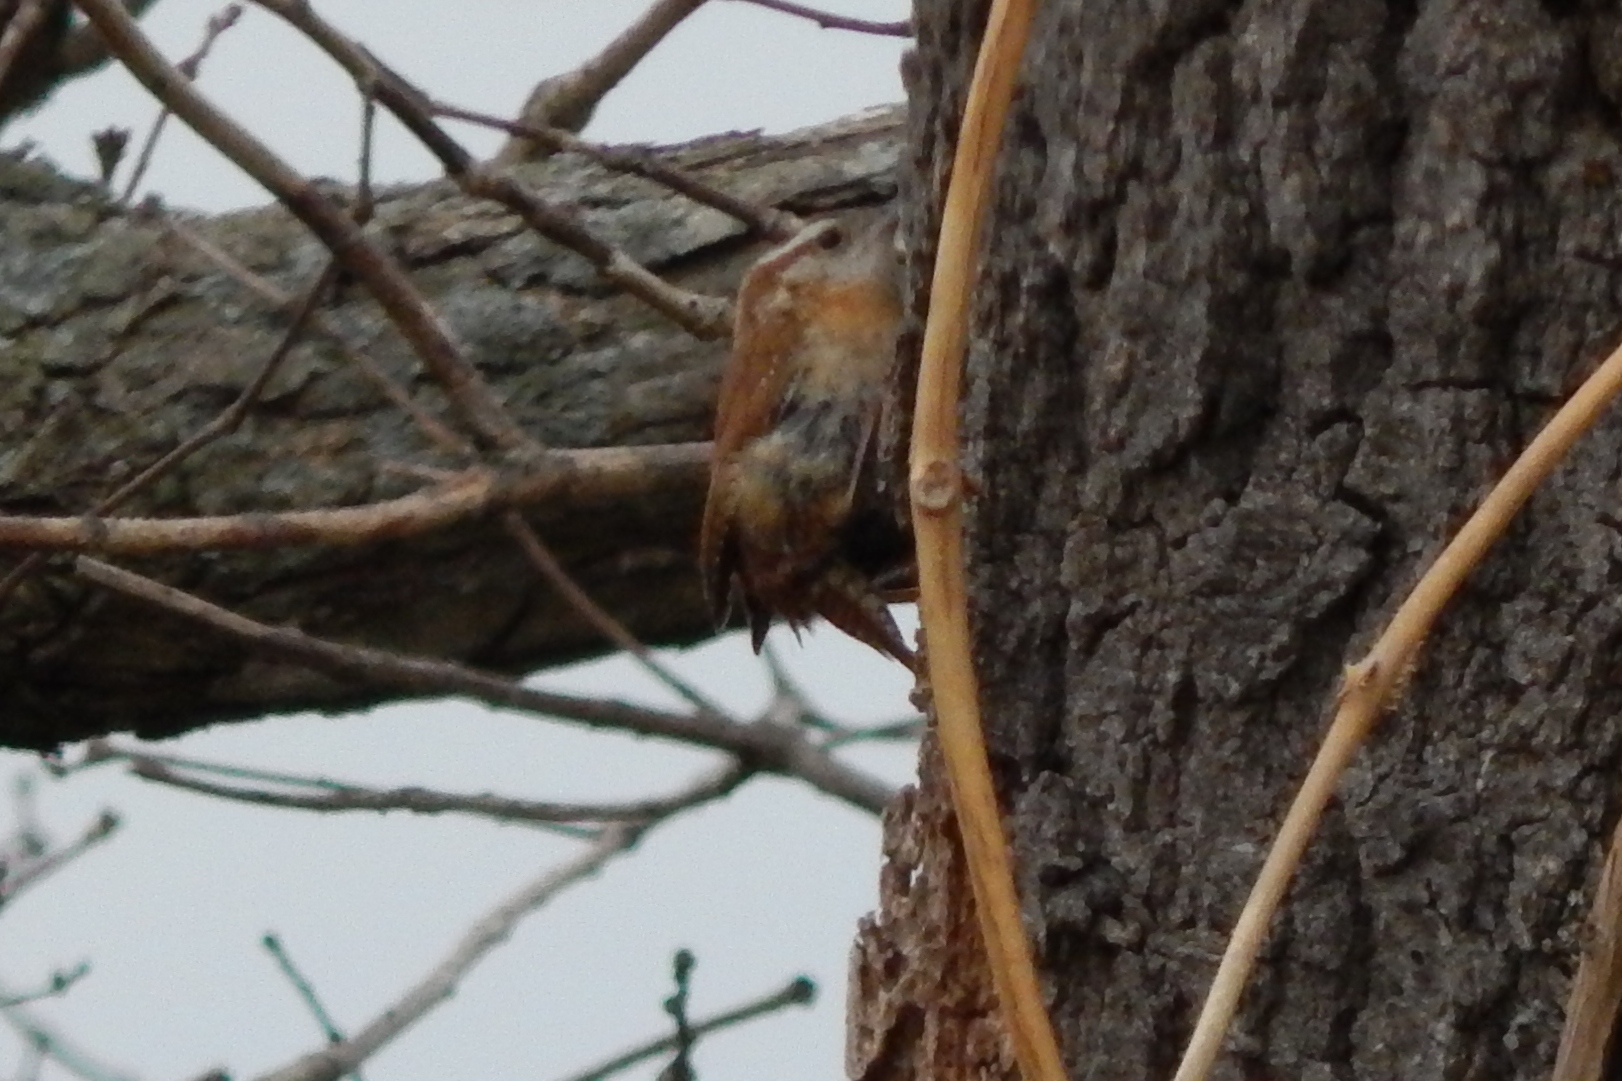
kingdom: Animalia
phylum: Chordata
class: Aves
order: Passeriformes
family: Troglodytidae
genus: Thryothorus
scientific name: Thryothorus ludovicianus
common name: Carolina wren
